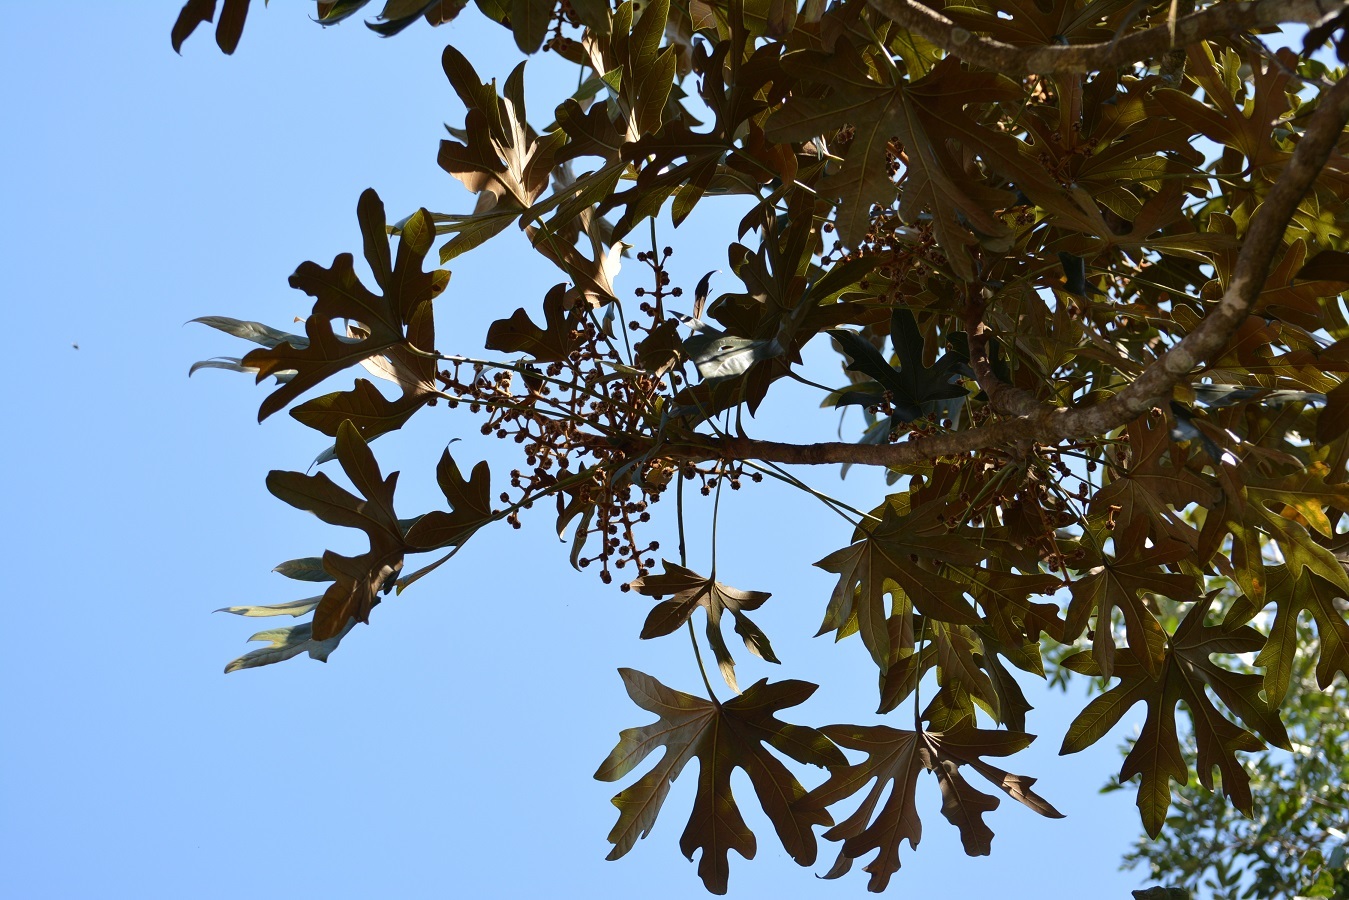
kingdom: Plantae
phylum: Tracheophyta
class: Magnoliopsida
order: Apiales
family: Araliaceae
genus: Oreopanax
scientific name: Oreopanax geminatus
